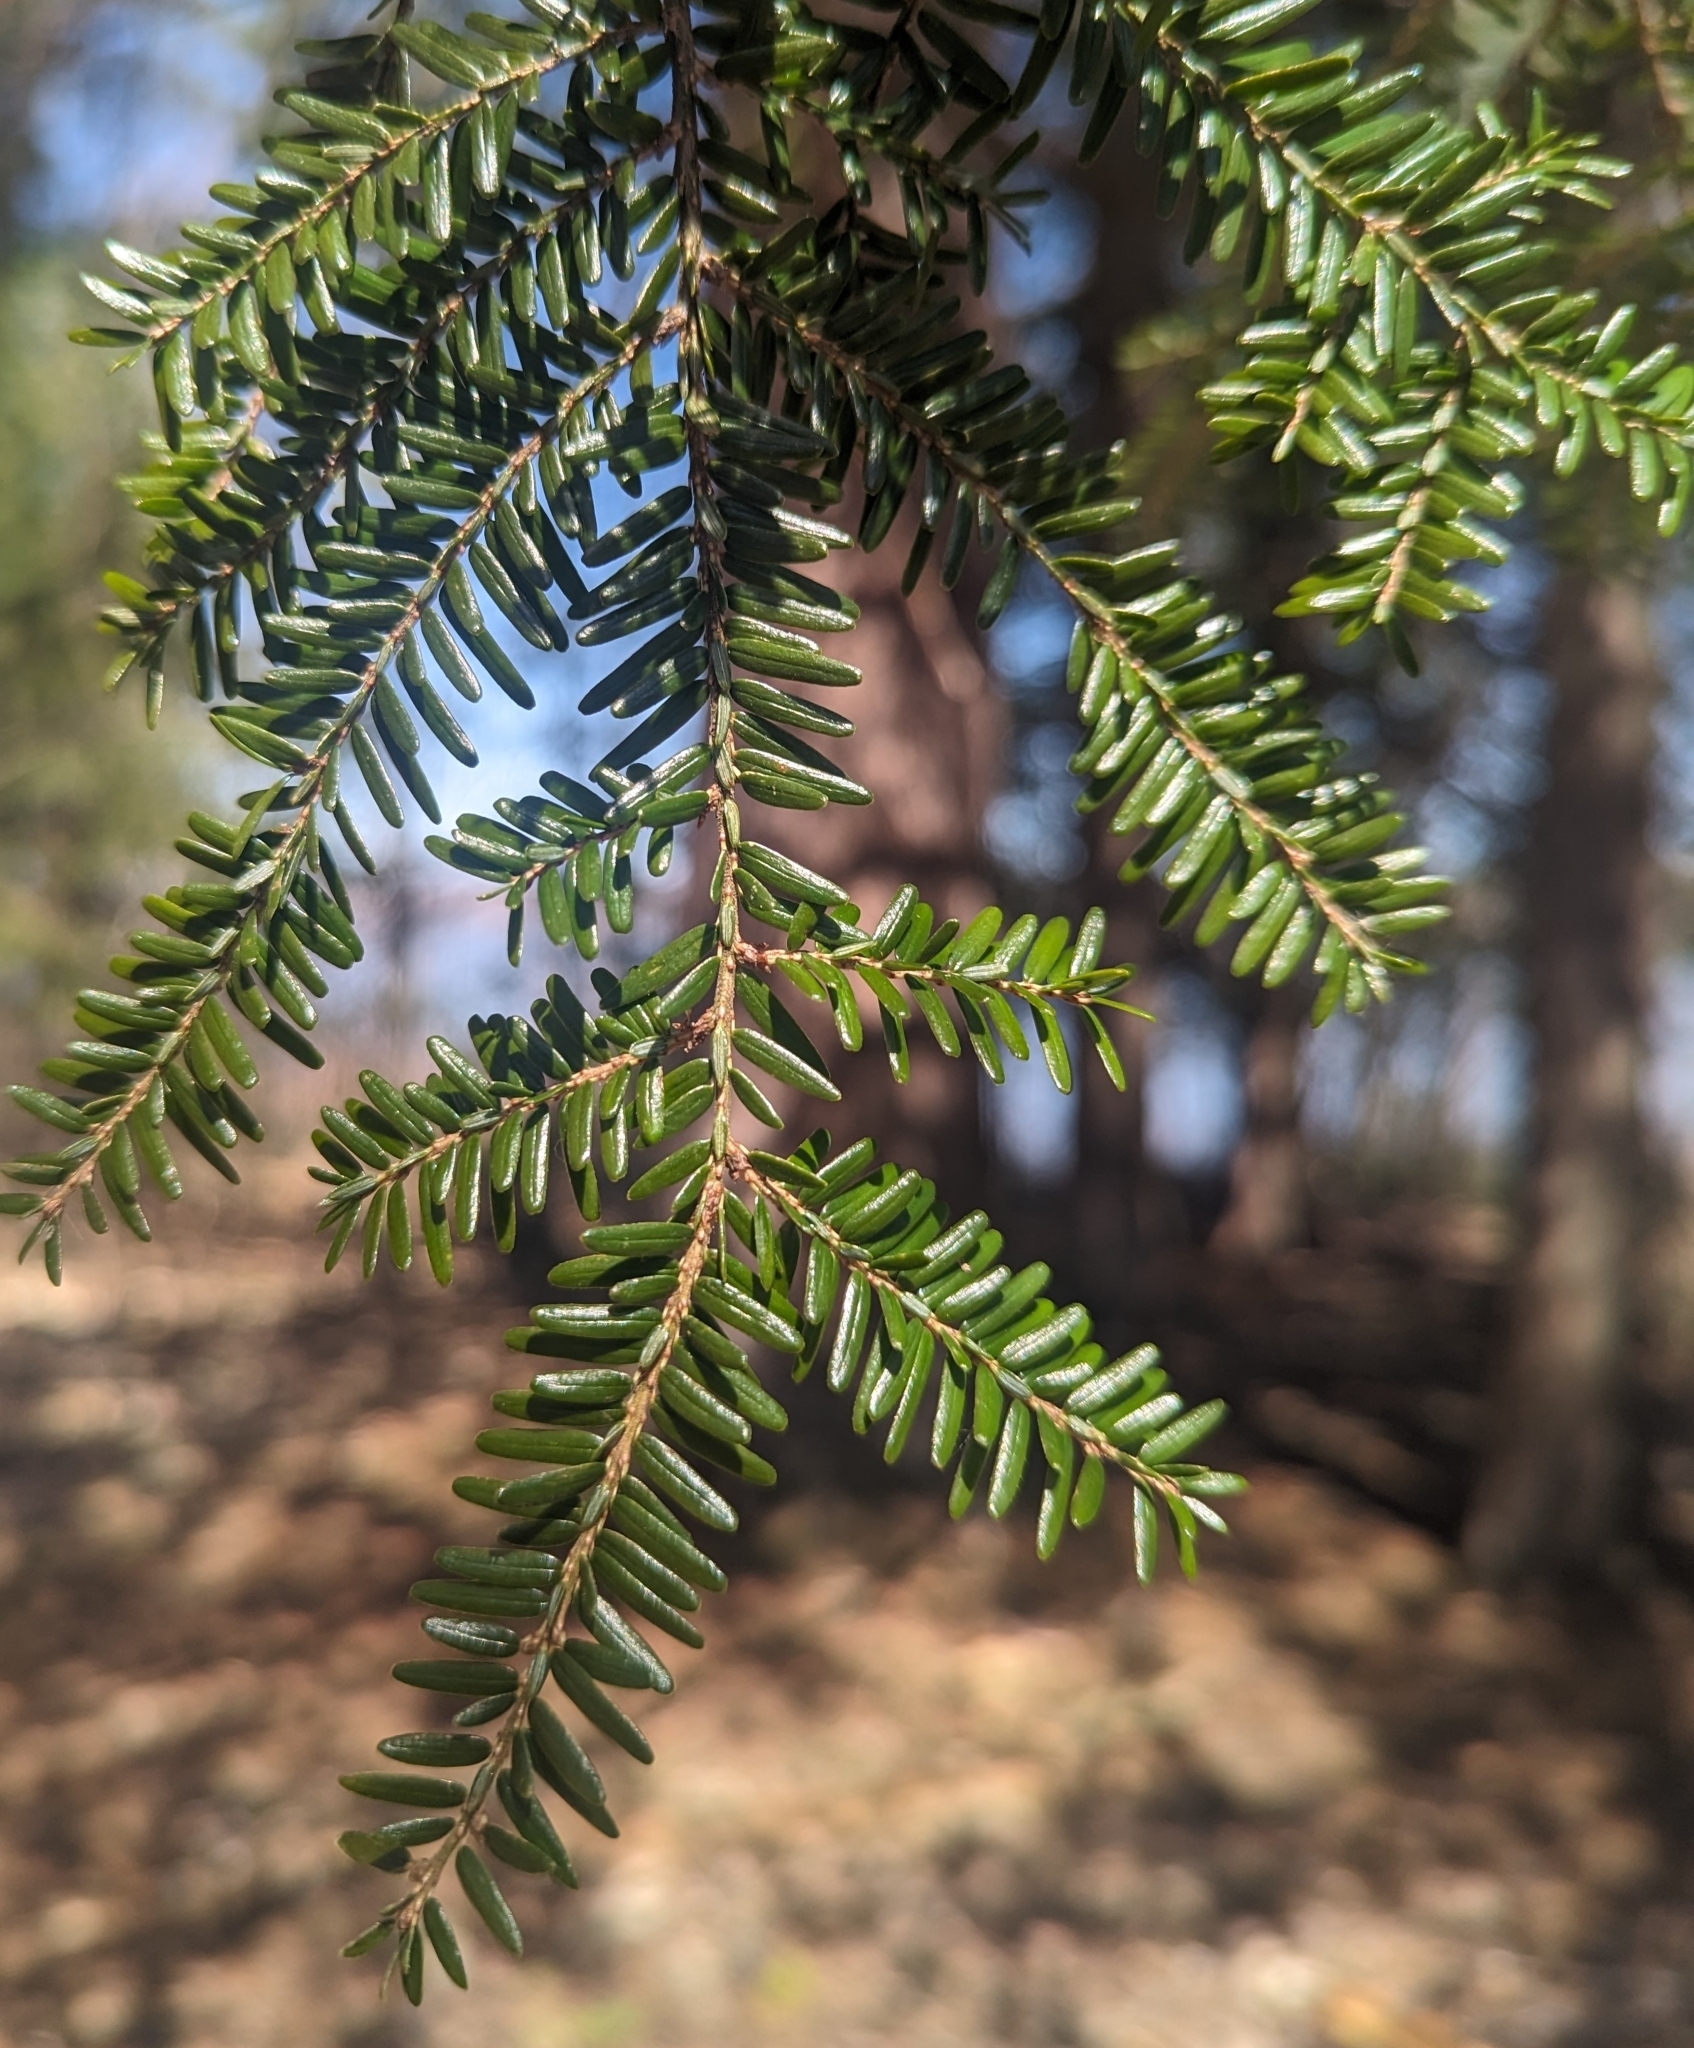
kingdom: Plantae
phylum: Tracheophyta
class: Pinopsida
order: Pinales
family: Pinaceae
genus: Tsuga
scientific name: Tsuga canadensis
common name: Eastern hemlock
